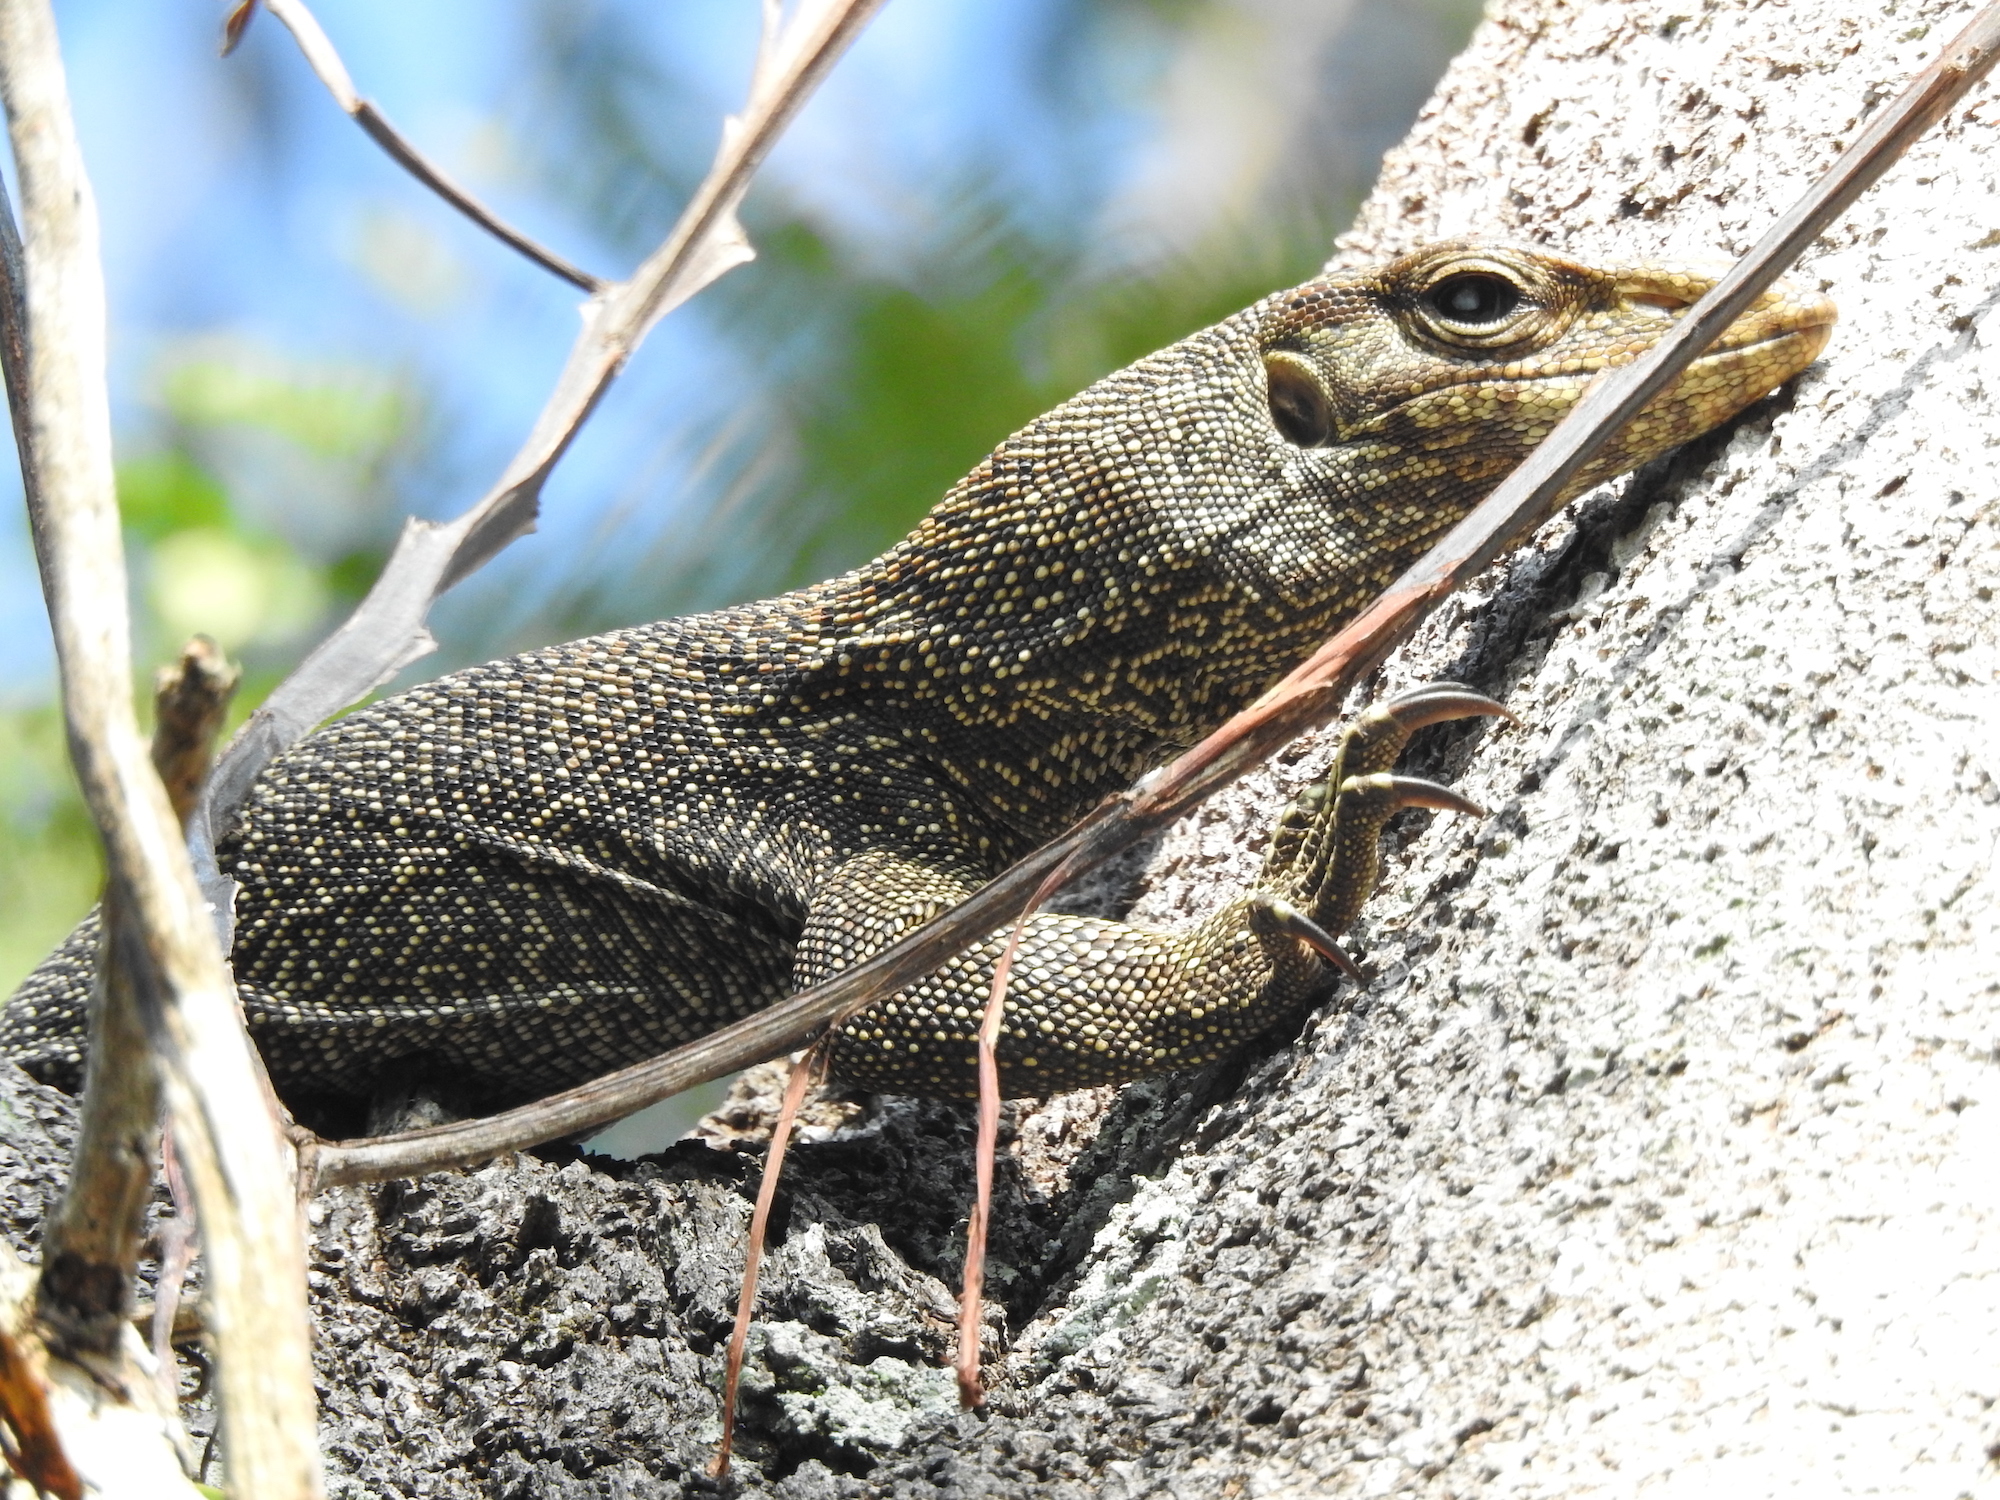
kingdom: Animalia
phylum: Chordata
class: Squamata
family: Varanidae
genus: Varanus
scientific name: Varanus nebulosus
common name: Clouded monitor
